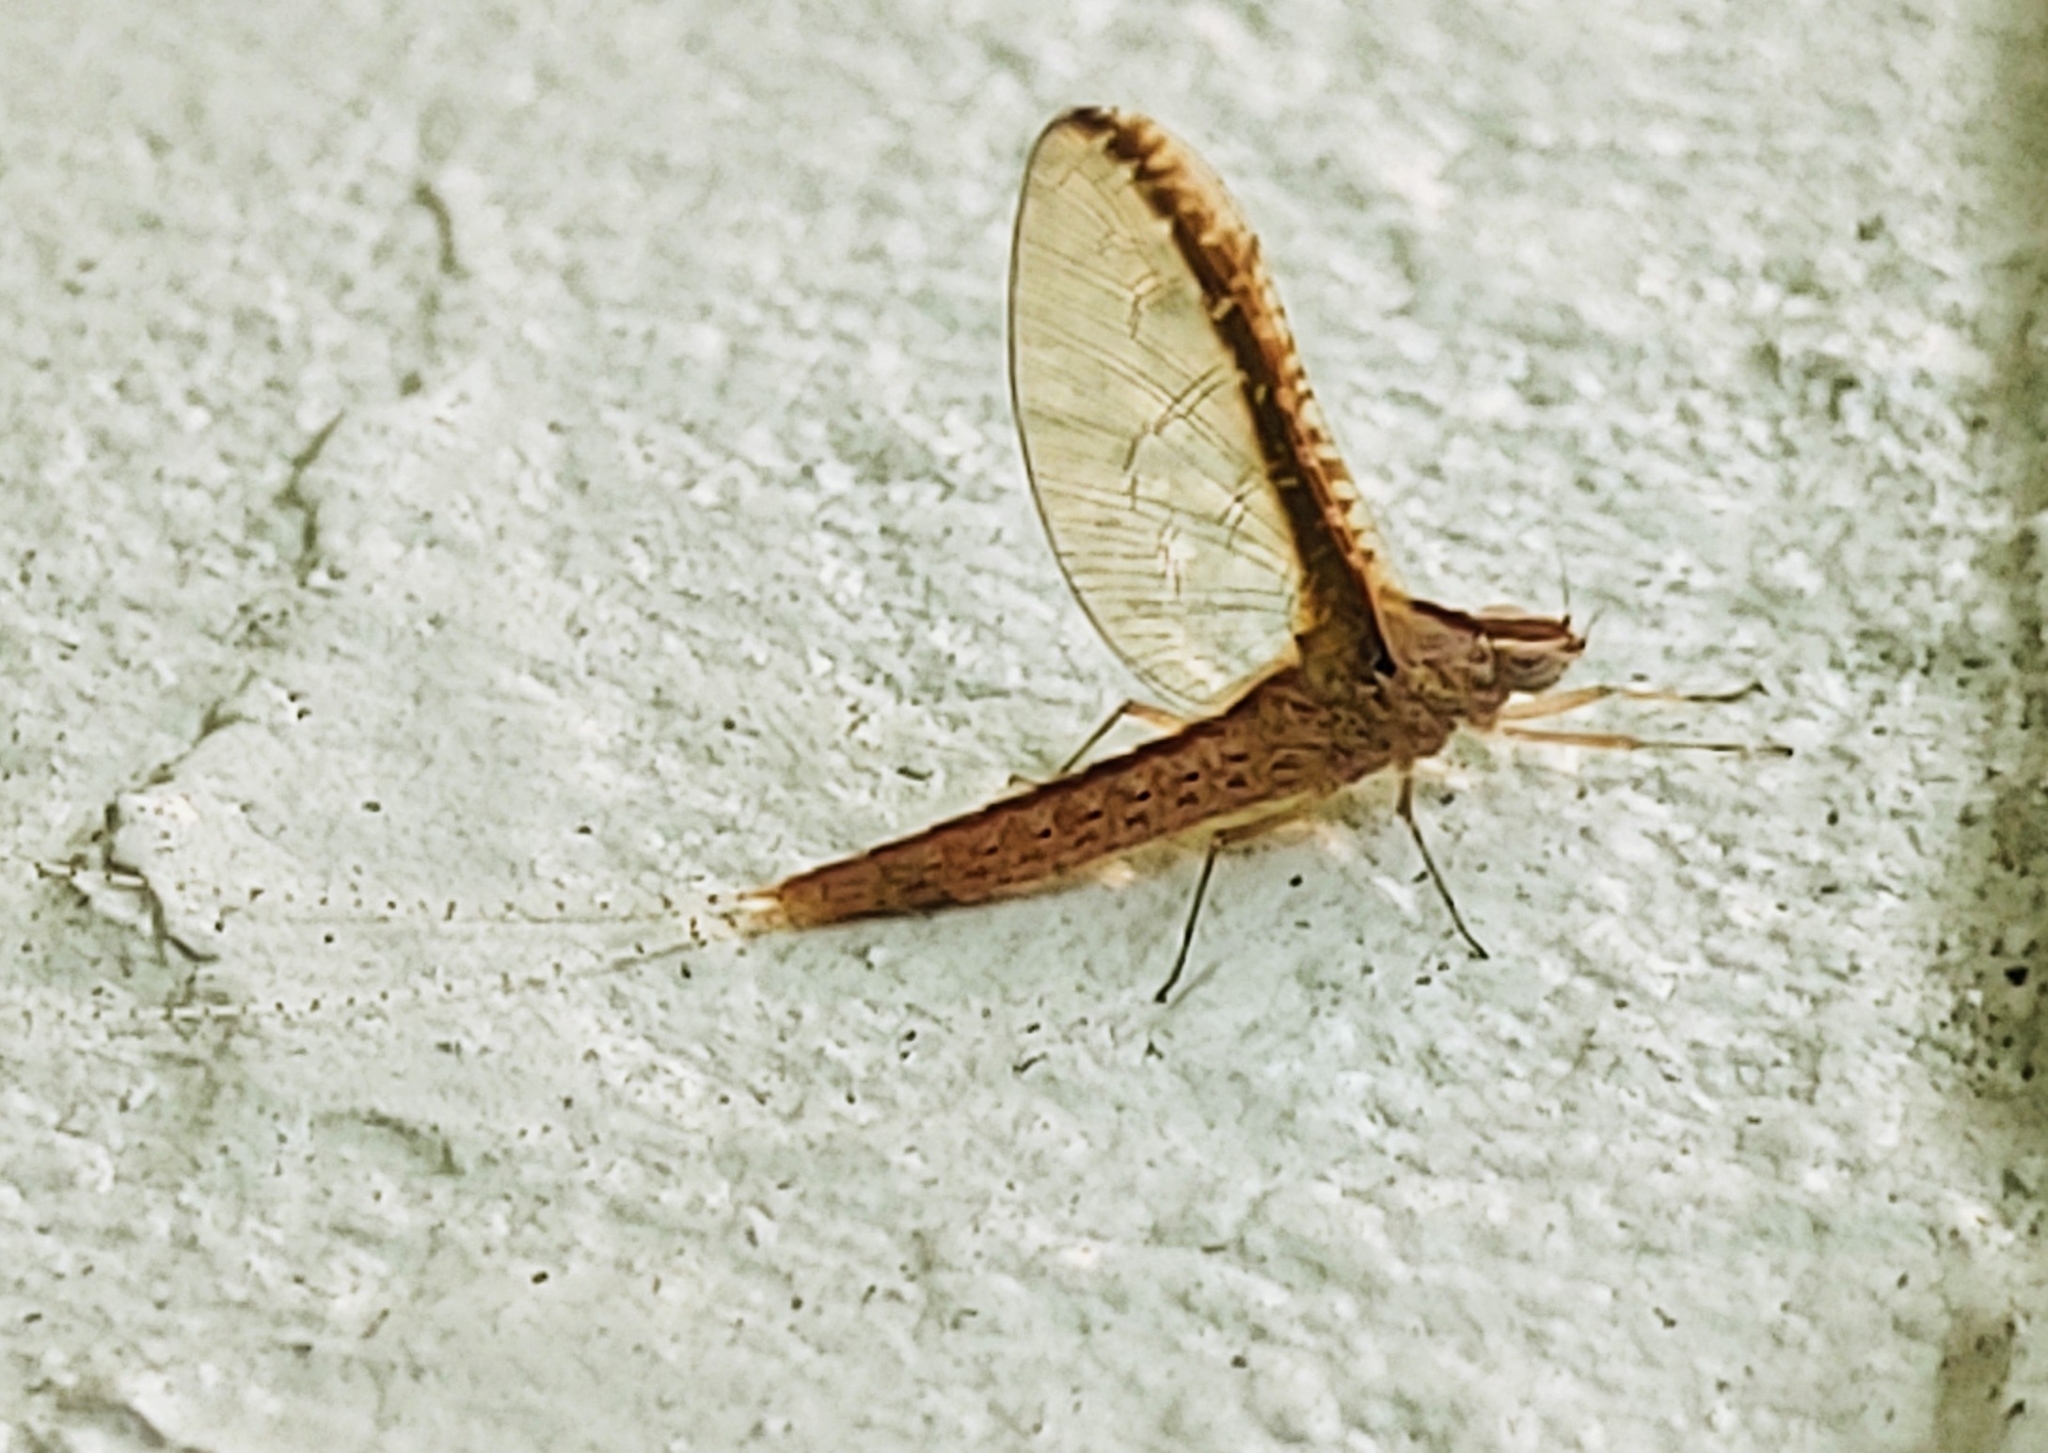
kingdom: Animalia
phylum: Arthropoda
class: Insecta
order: Ephemeroptera
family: Baetidae
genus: Callibaetis
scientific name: Callibaetis floridanus
